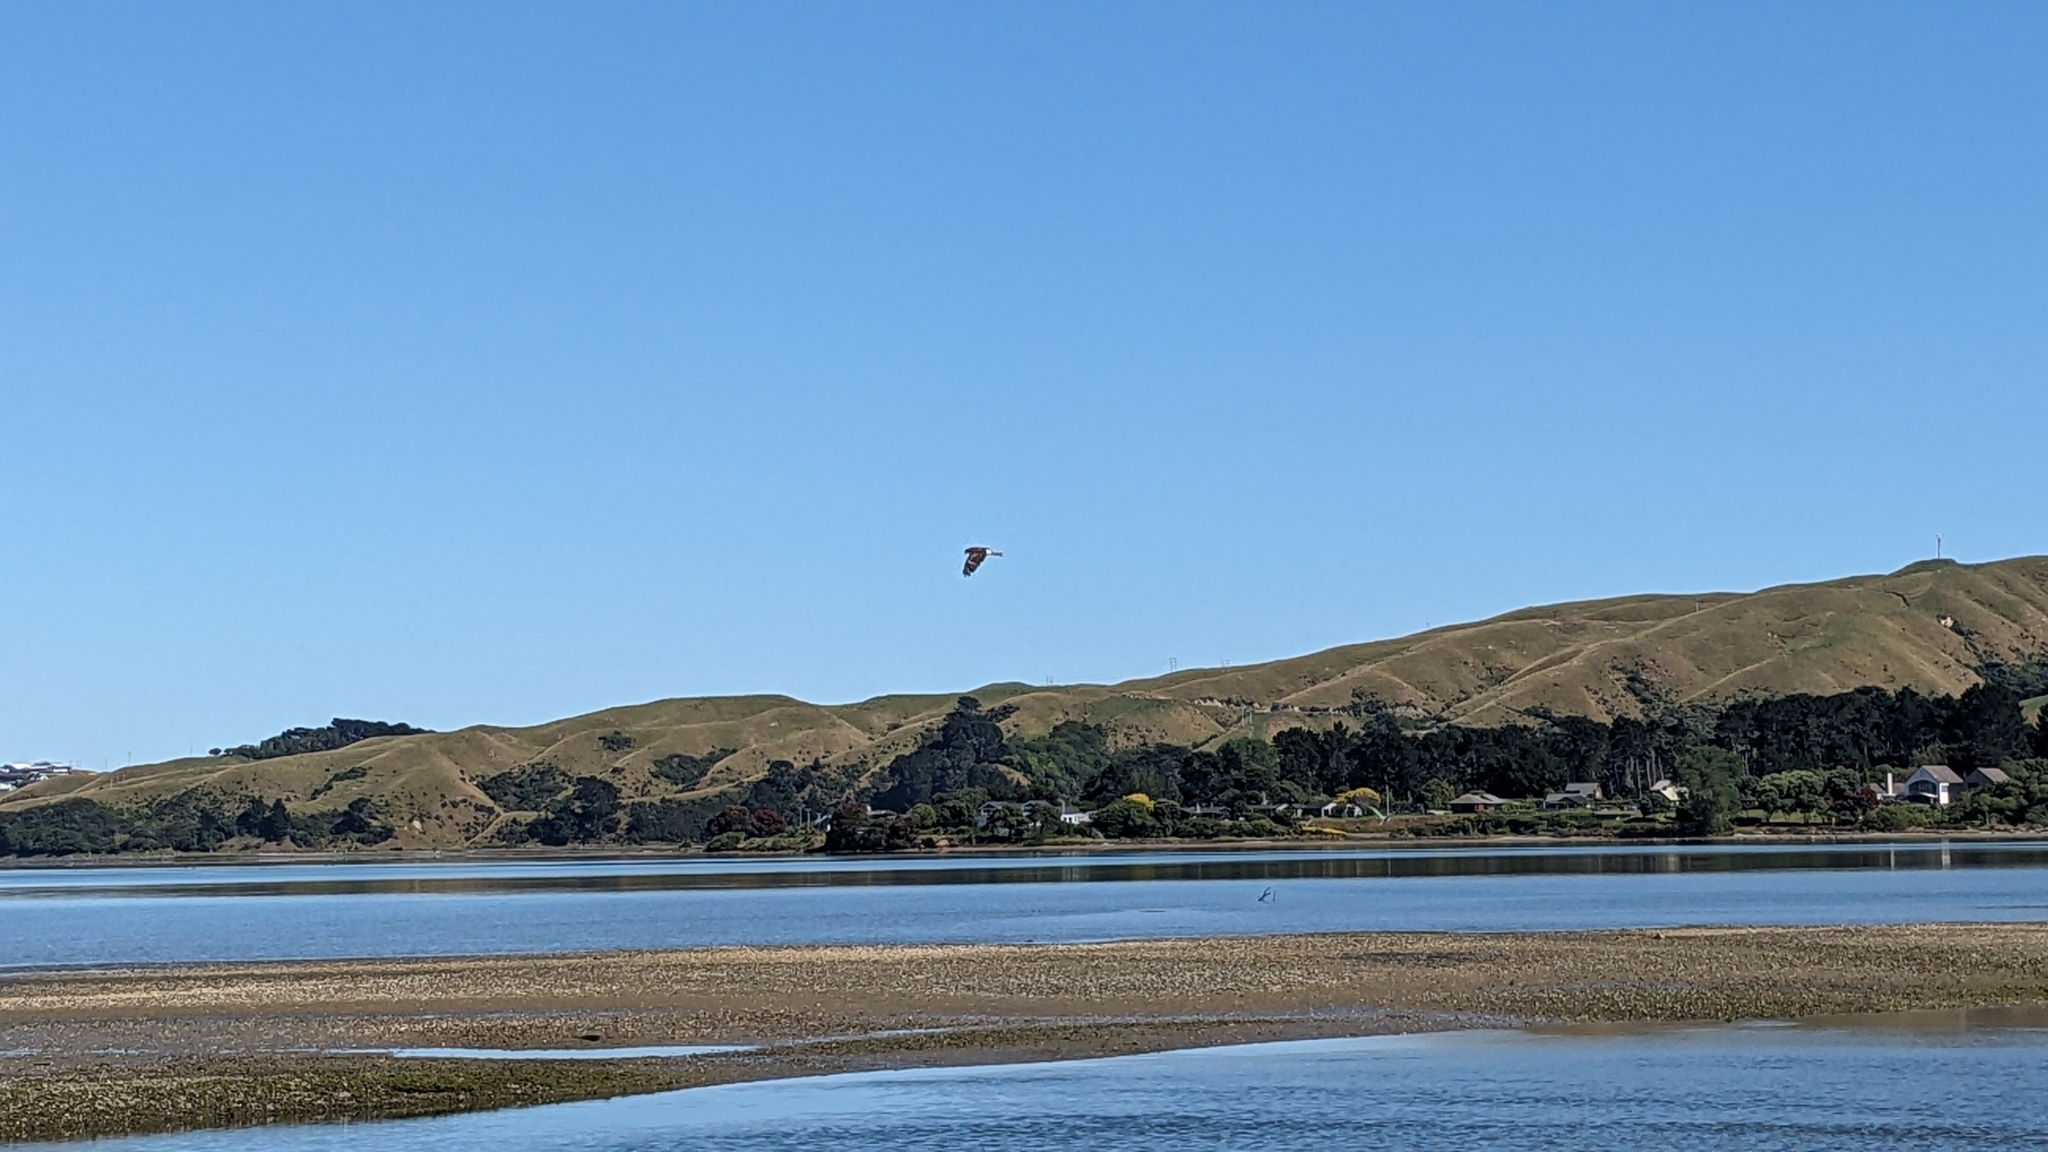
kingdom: Animalia
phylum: Chordata
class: Aves
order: Accipitriformes
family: Accipitridae
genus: Circus
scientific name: Circus approximans
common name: Swamp harrier
